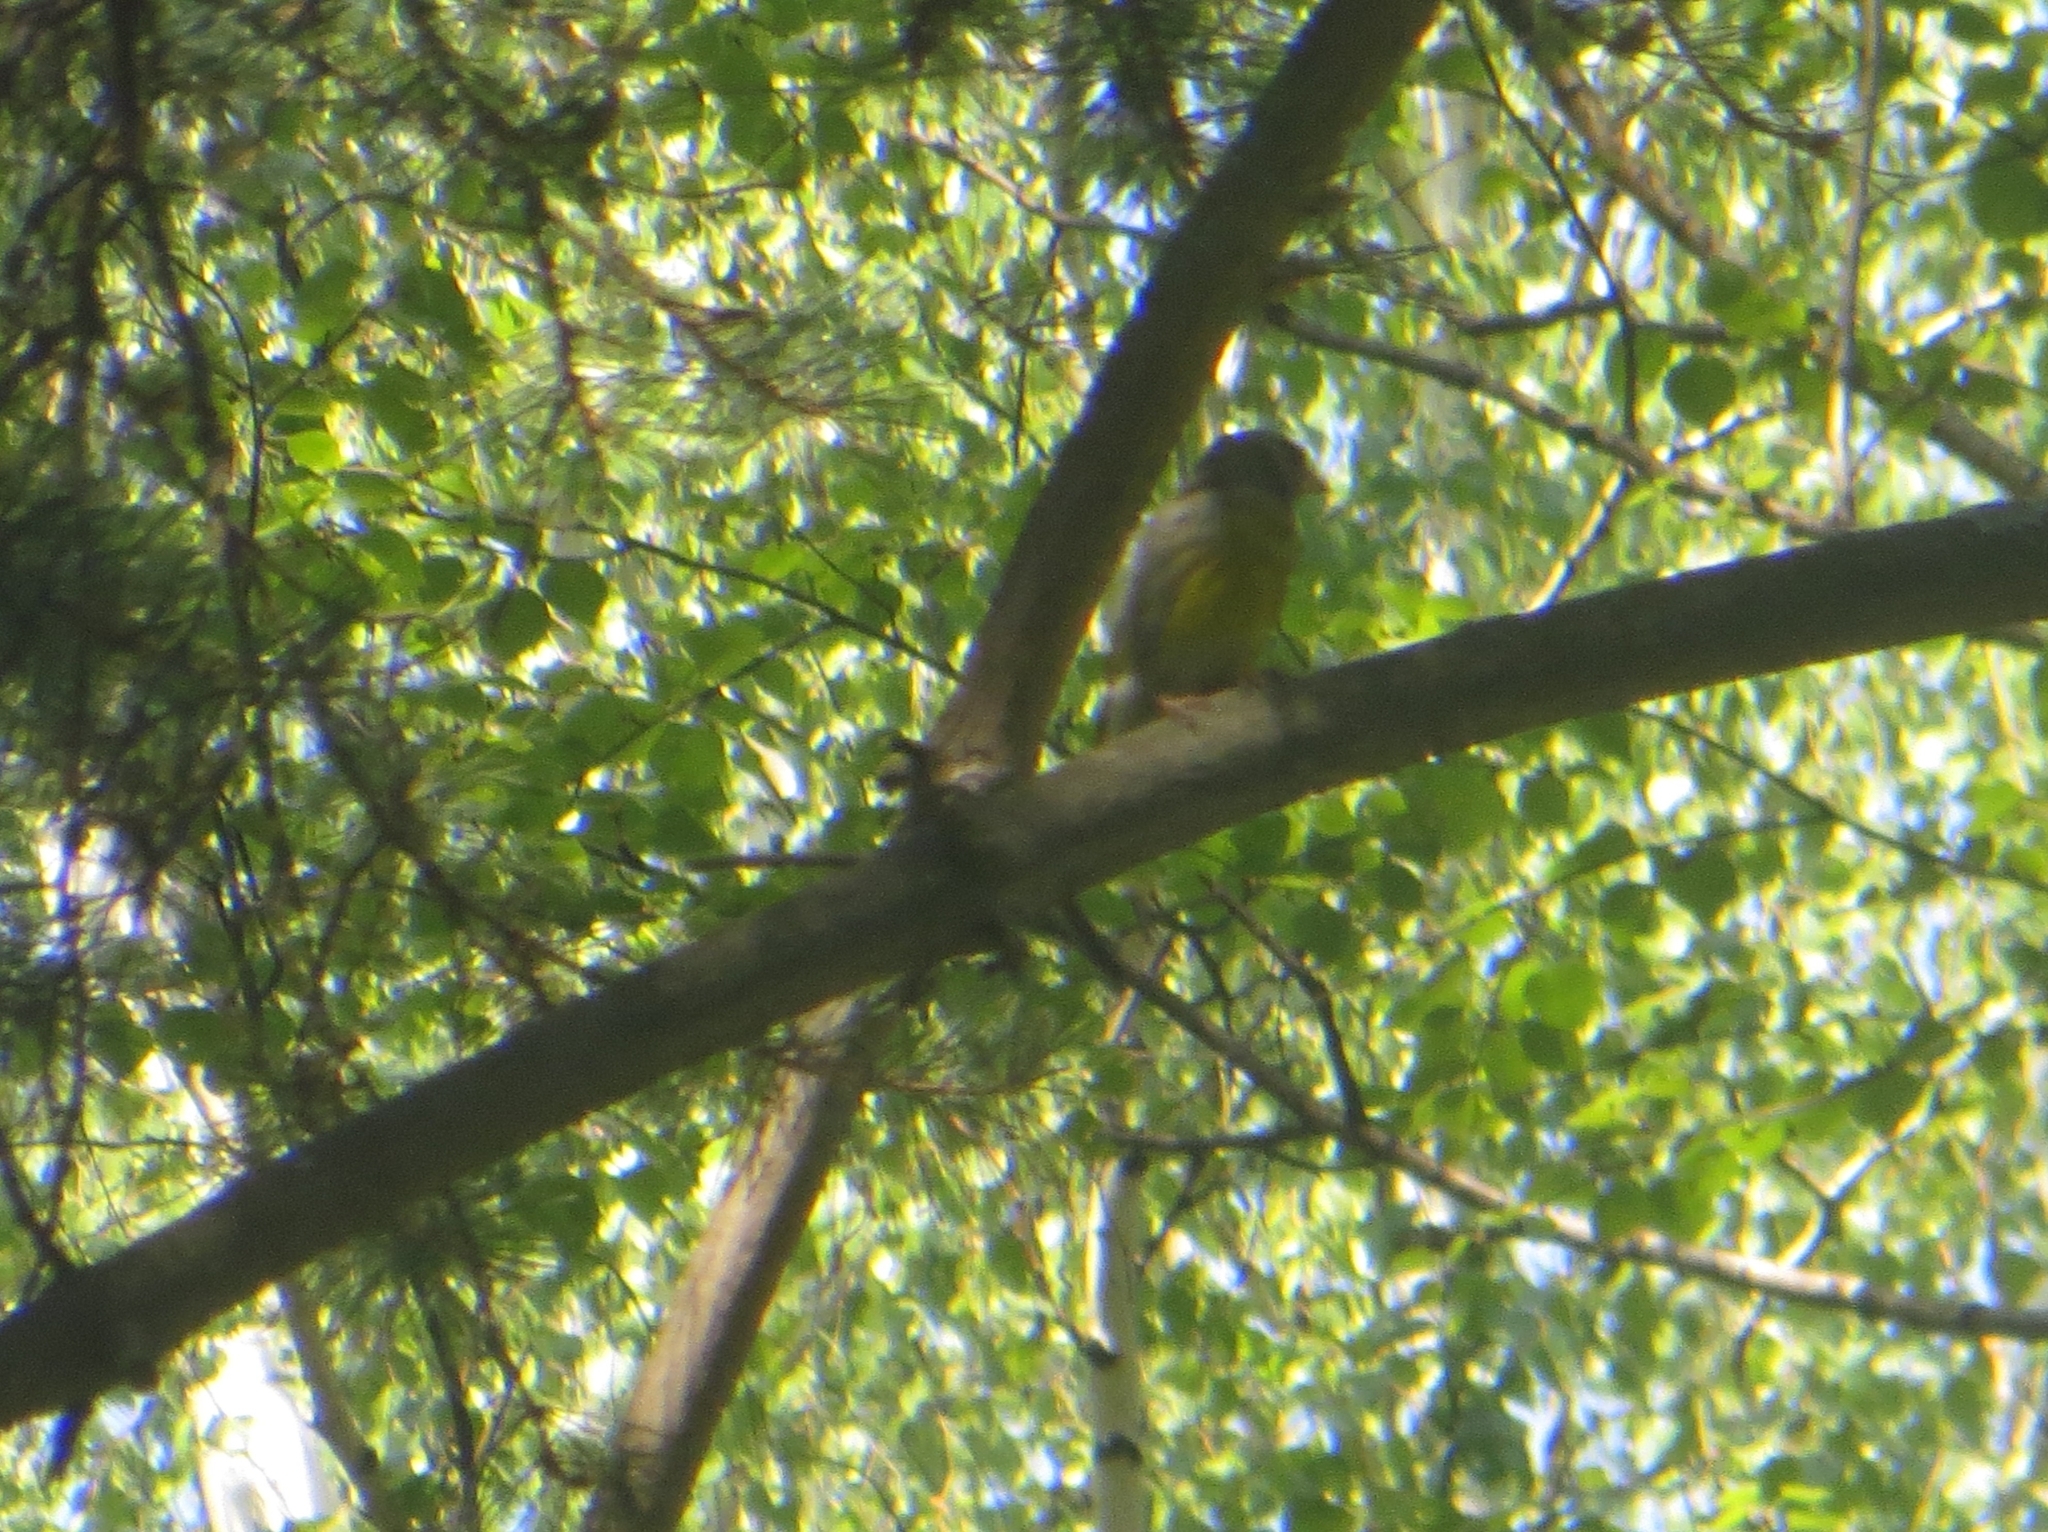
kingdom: Plantae
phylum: Tracheophyta
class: Liliopsida
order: Poales
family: Poaceae
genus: Chloris
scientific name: Chloris chloris
